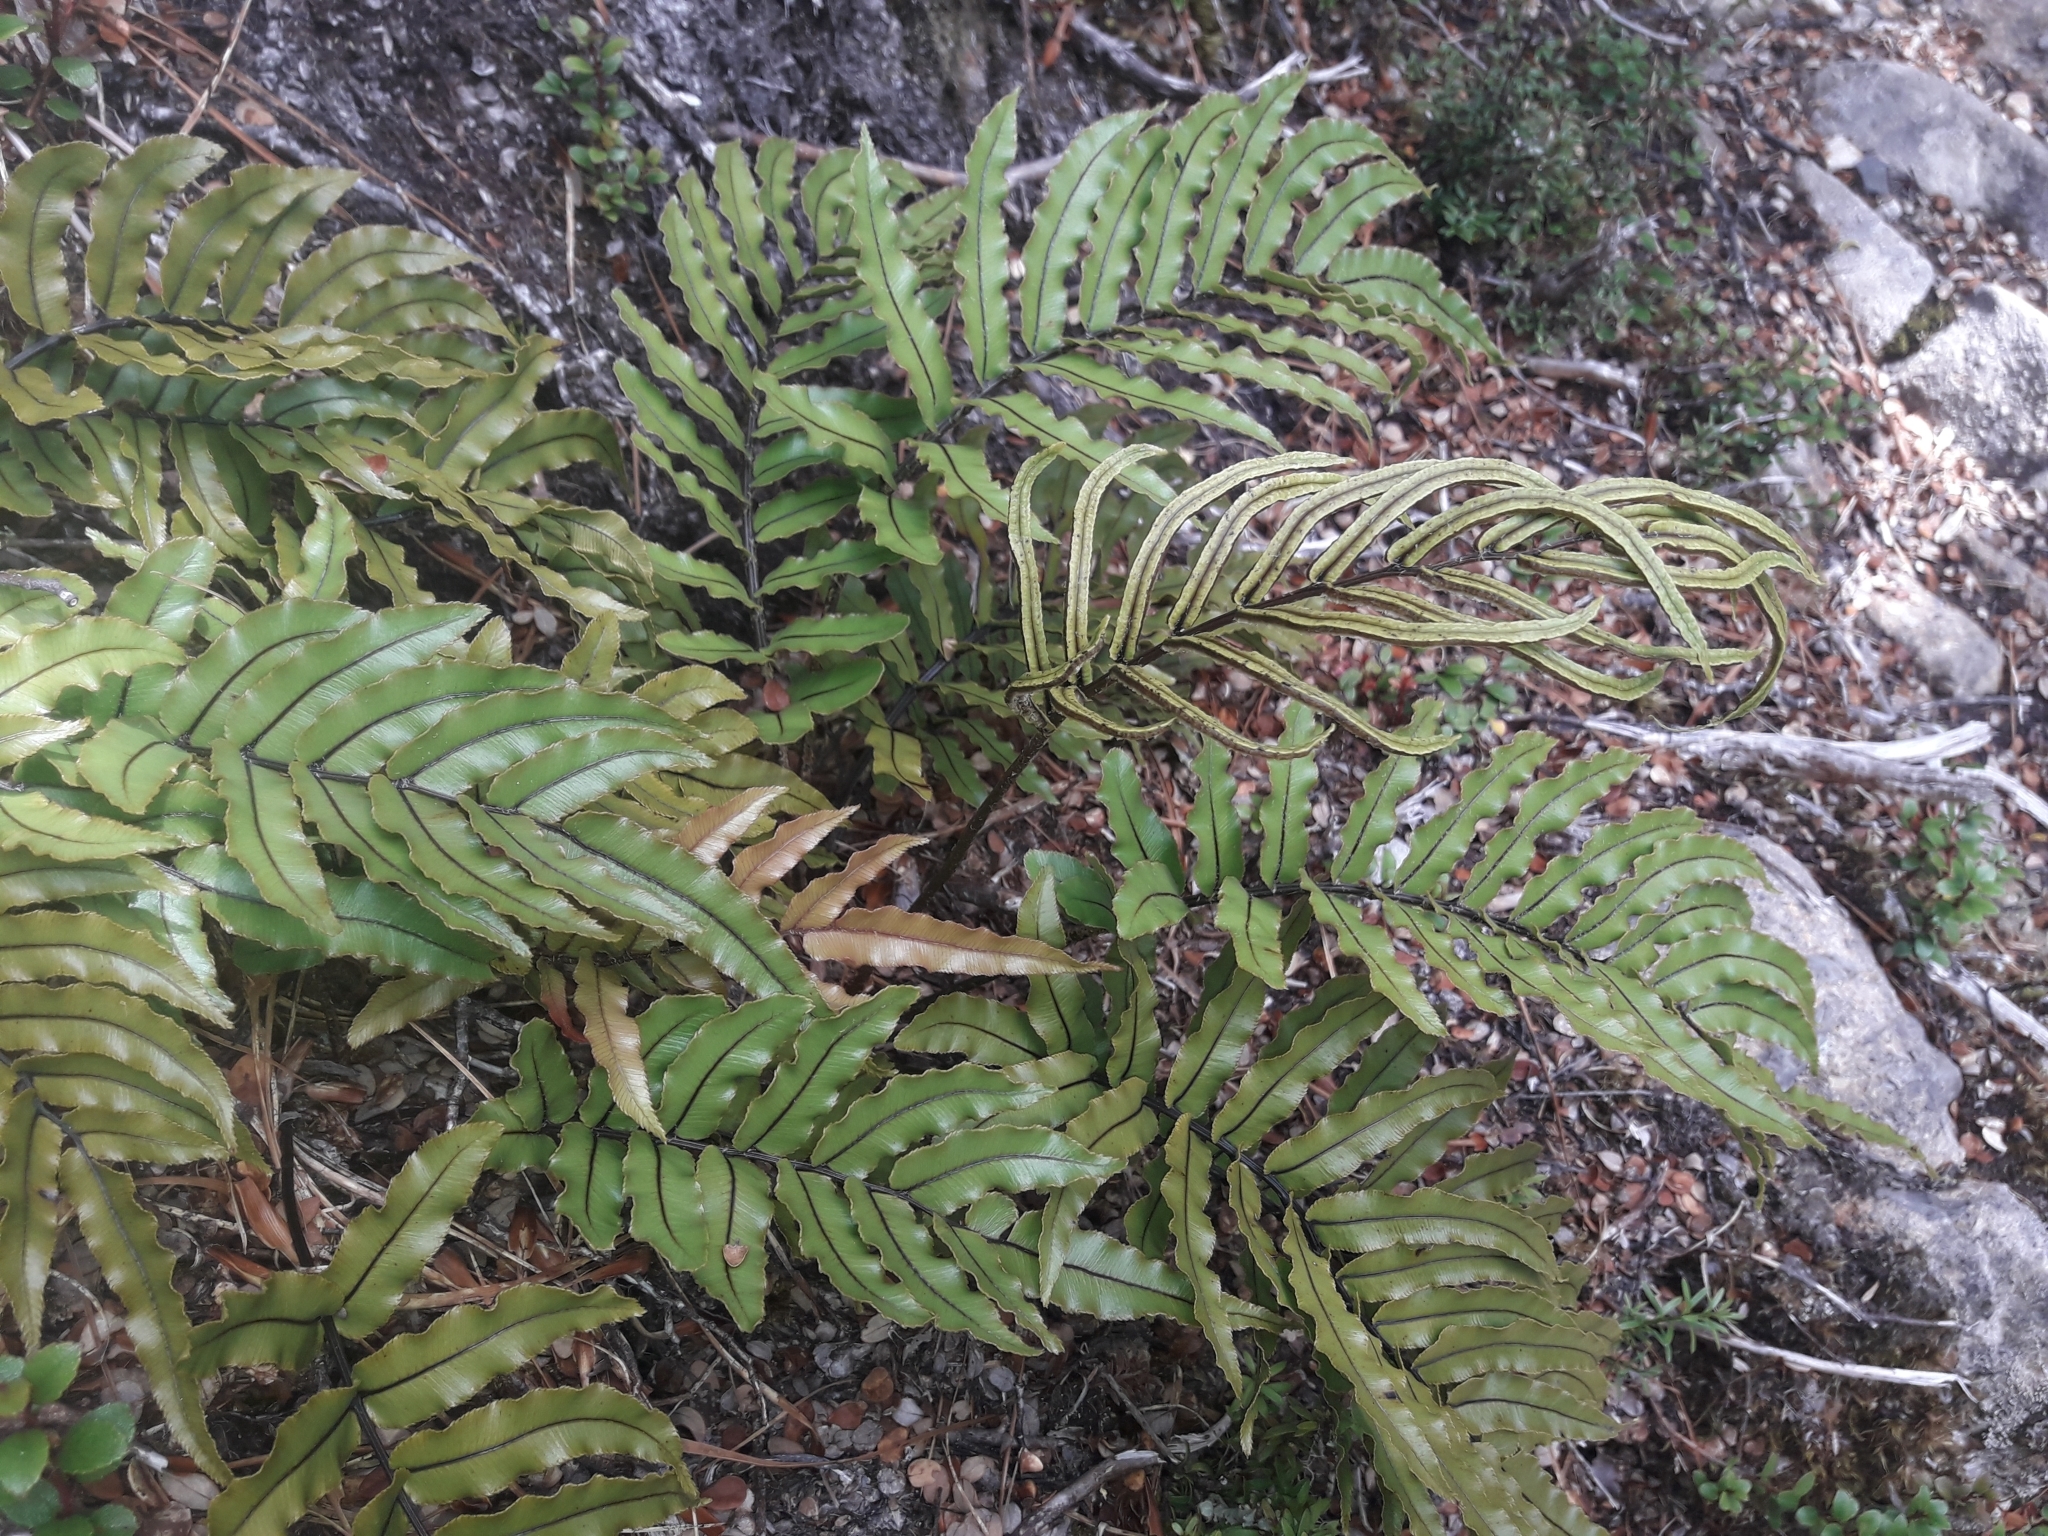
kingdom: Plantae
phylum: Tracheophyta
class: Polypodiopsida
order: Polypodiales
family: Blechnaceae
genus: Parablechnum
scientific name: Parablechnum montanum
